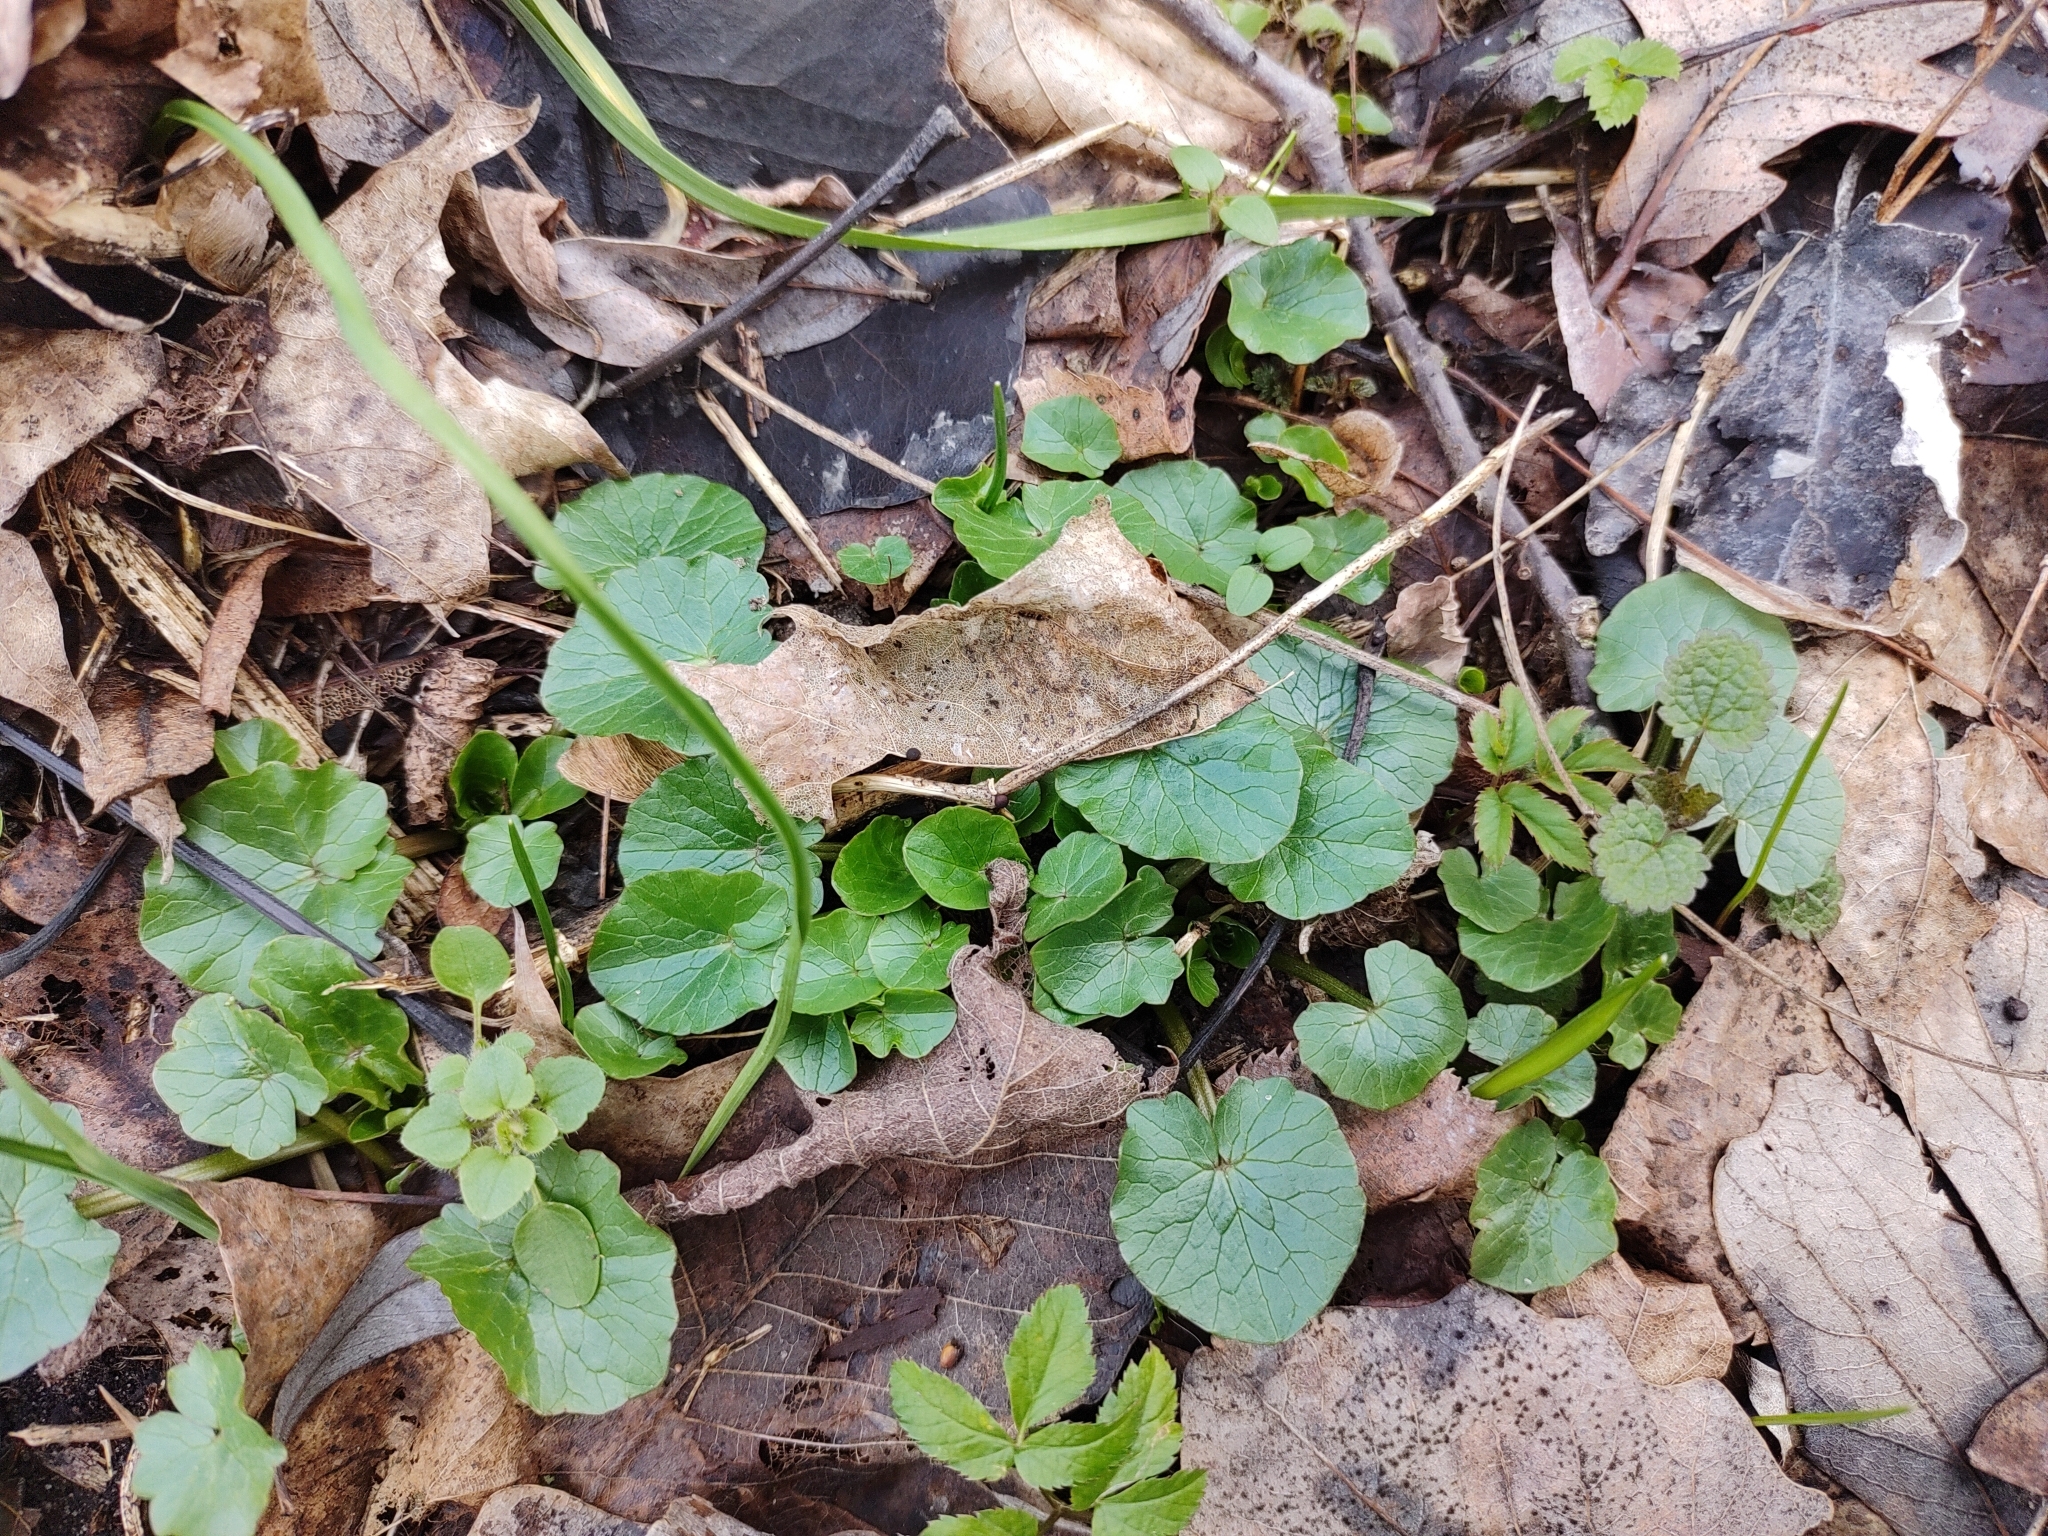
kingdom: Plantae
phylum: Tracheophyta
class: Magnoliopsida
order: Ranunculales
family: Ranunculaceae
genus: Ficaria
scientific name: Ficaria verna
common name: Lesser celandine
